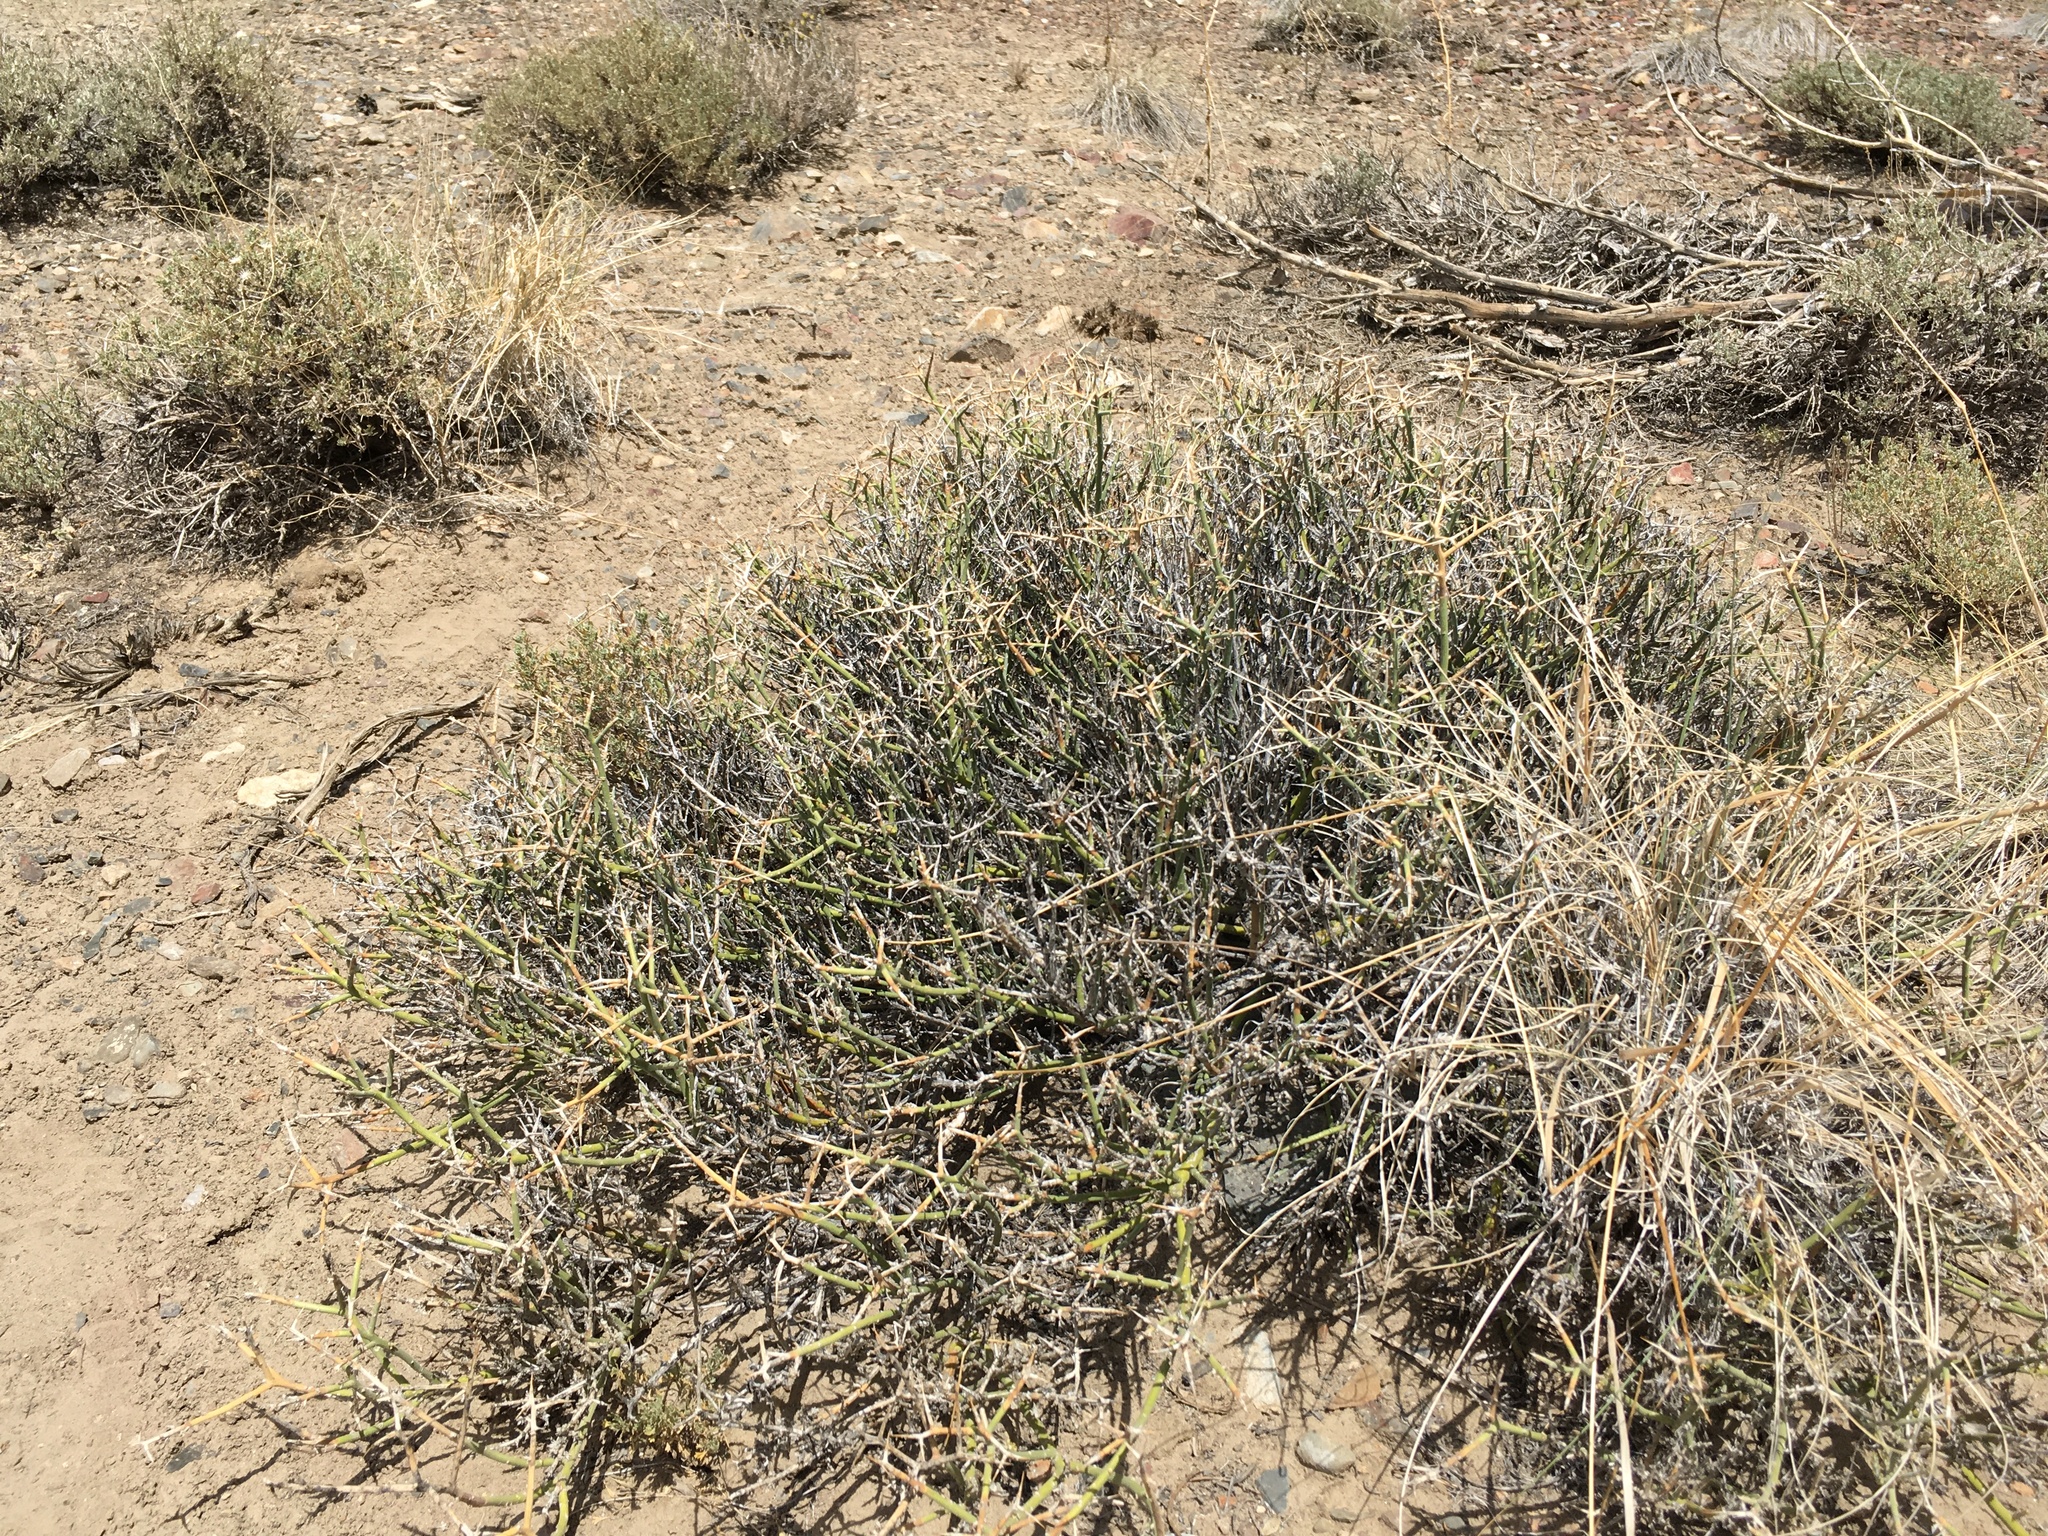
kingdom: Plantae
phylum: Tracheophyta
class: Magnoliopsida
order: Lamiales
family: Oleaceae
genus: Menodora
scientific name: Menodora spinescens
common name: Spiny menodora
